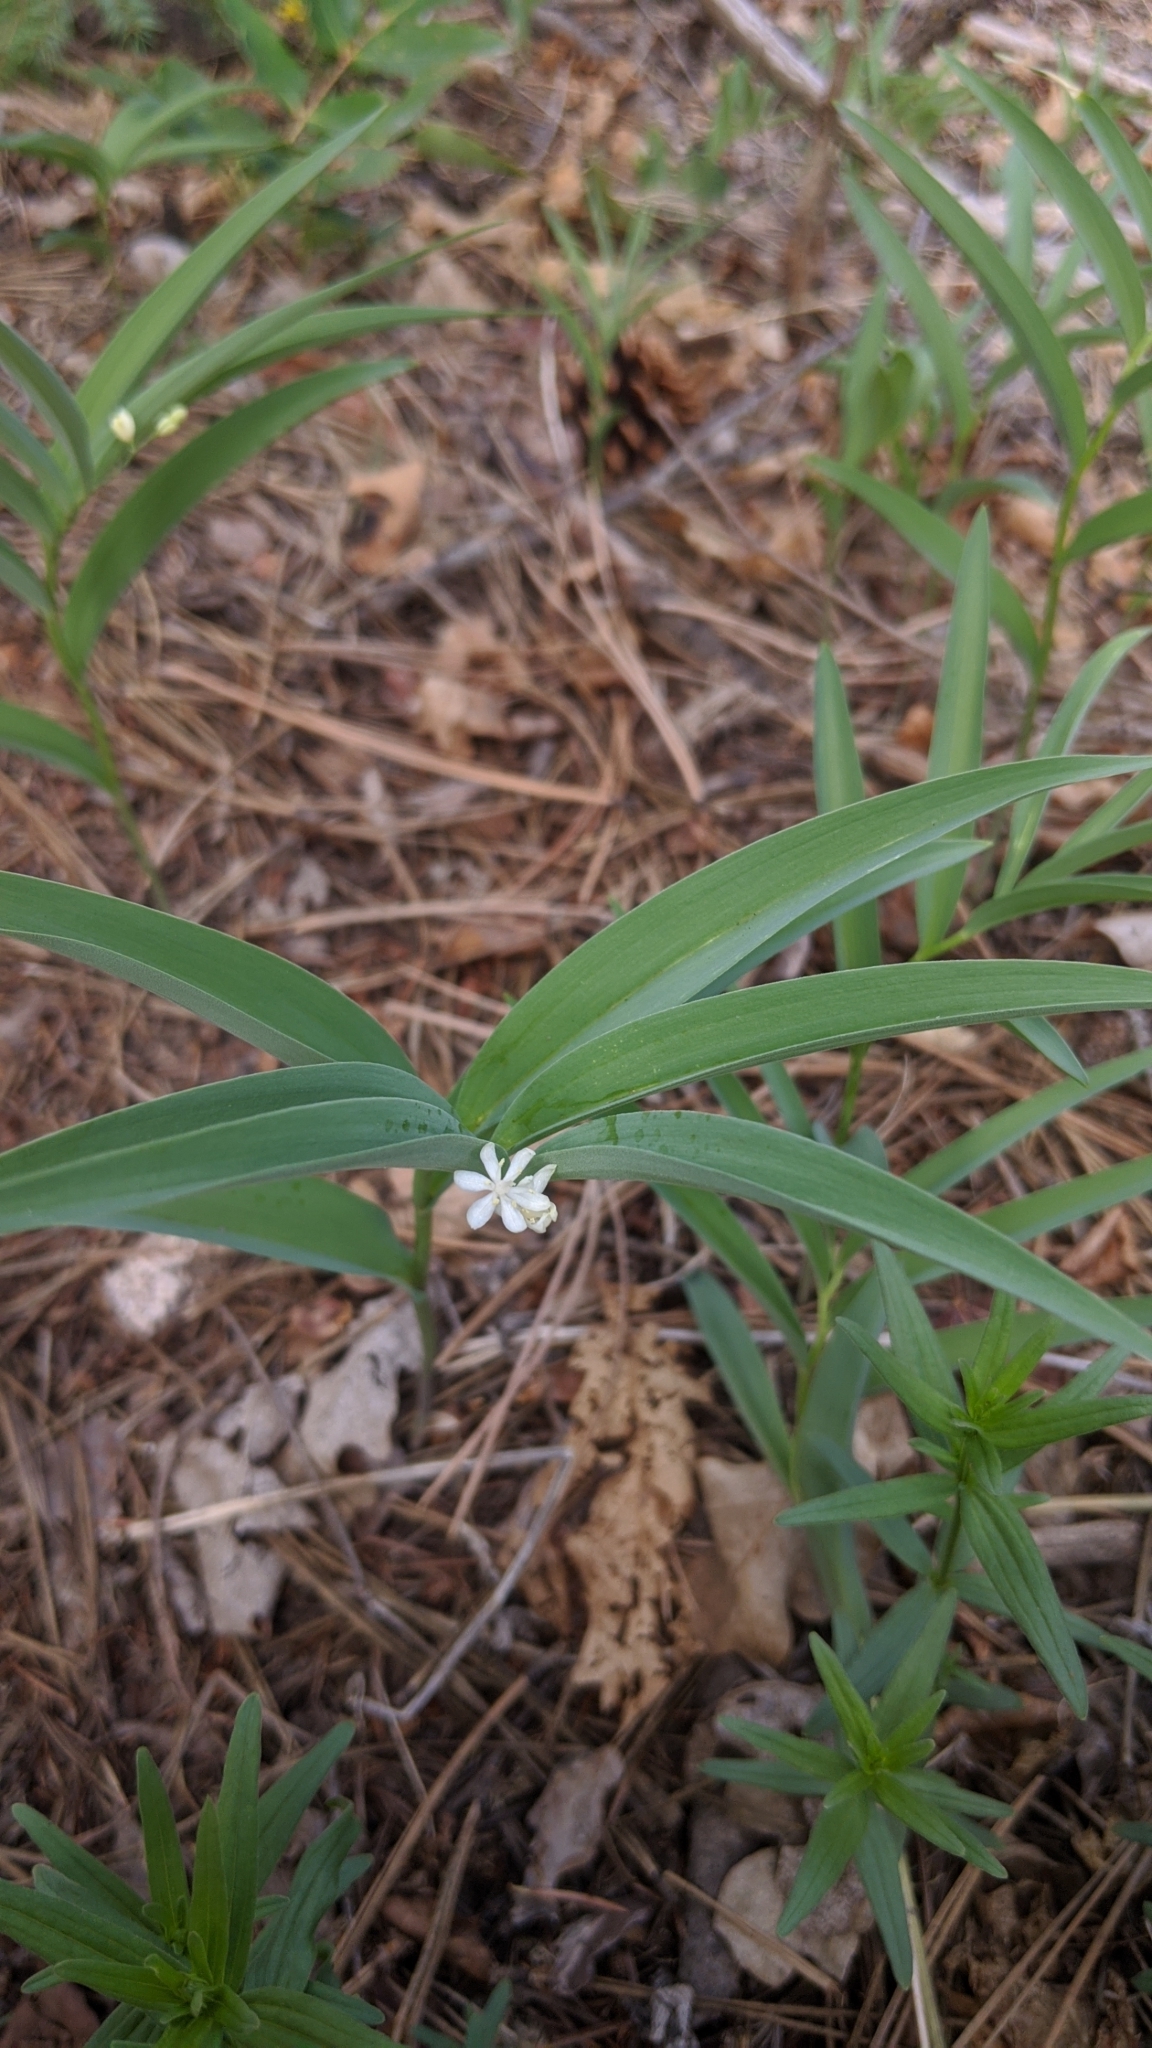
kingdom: Plantae
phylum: Tracheophyta
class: Liliopsida
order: Asparagales
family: Asparagaceae
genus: Maianthemum
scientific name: Maianthemum stellatum
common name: Little false solomon's seal
